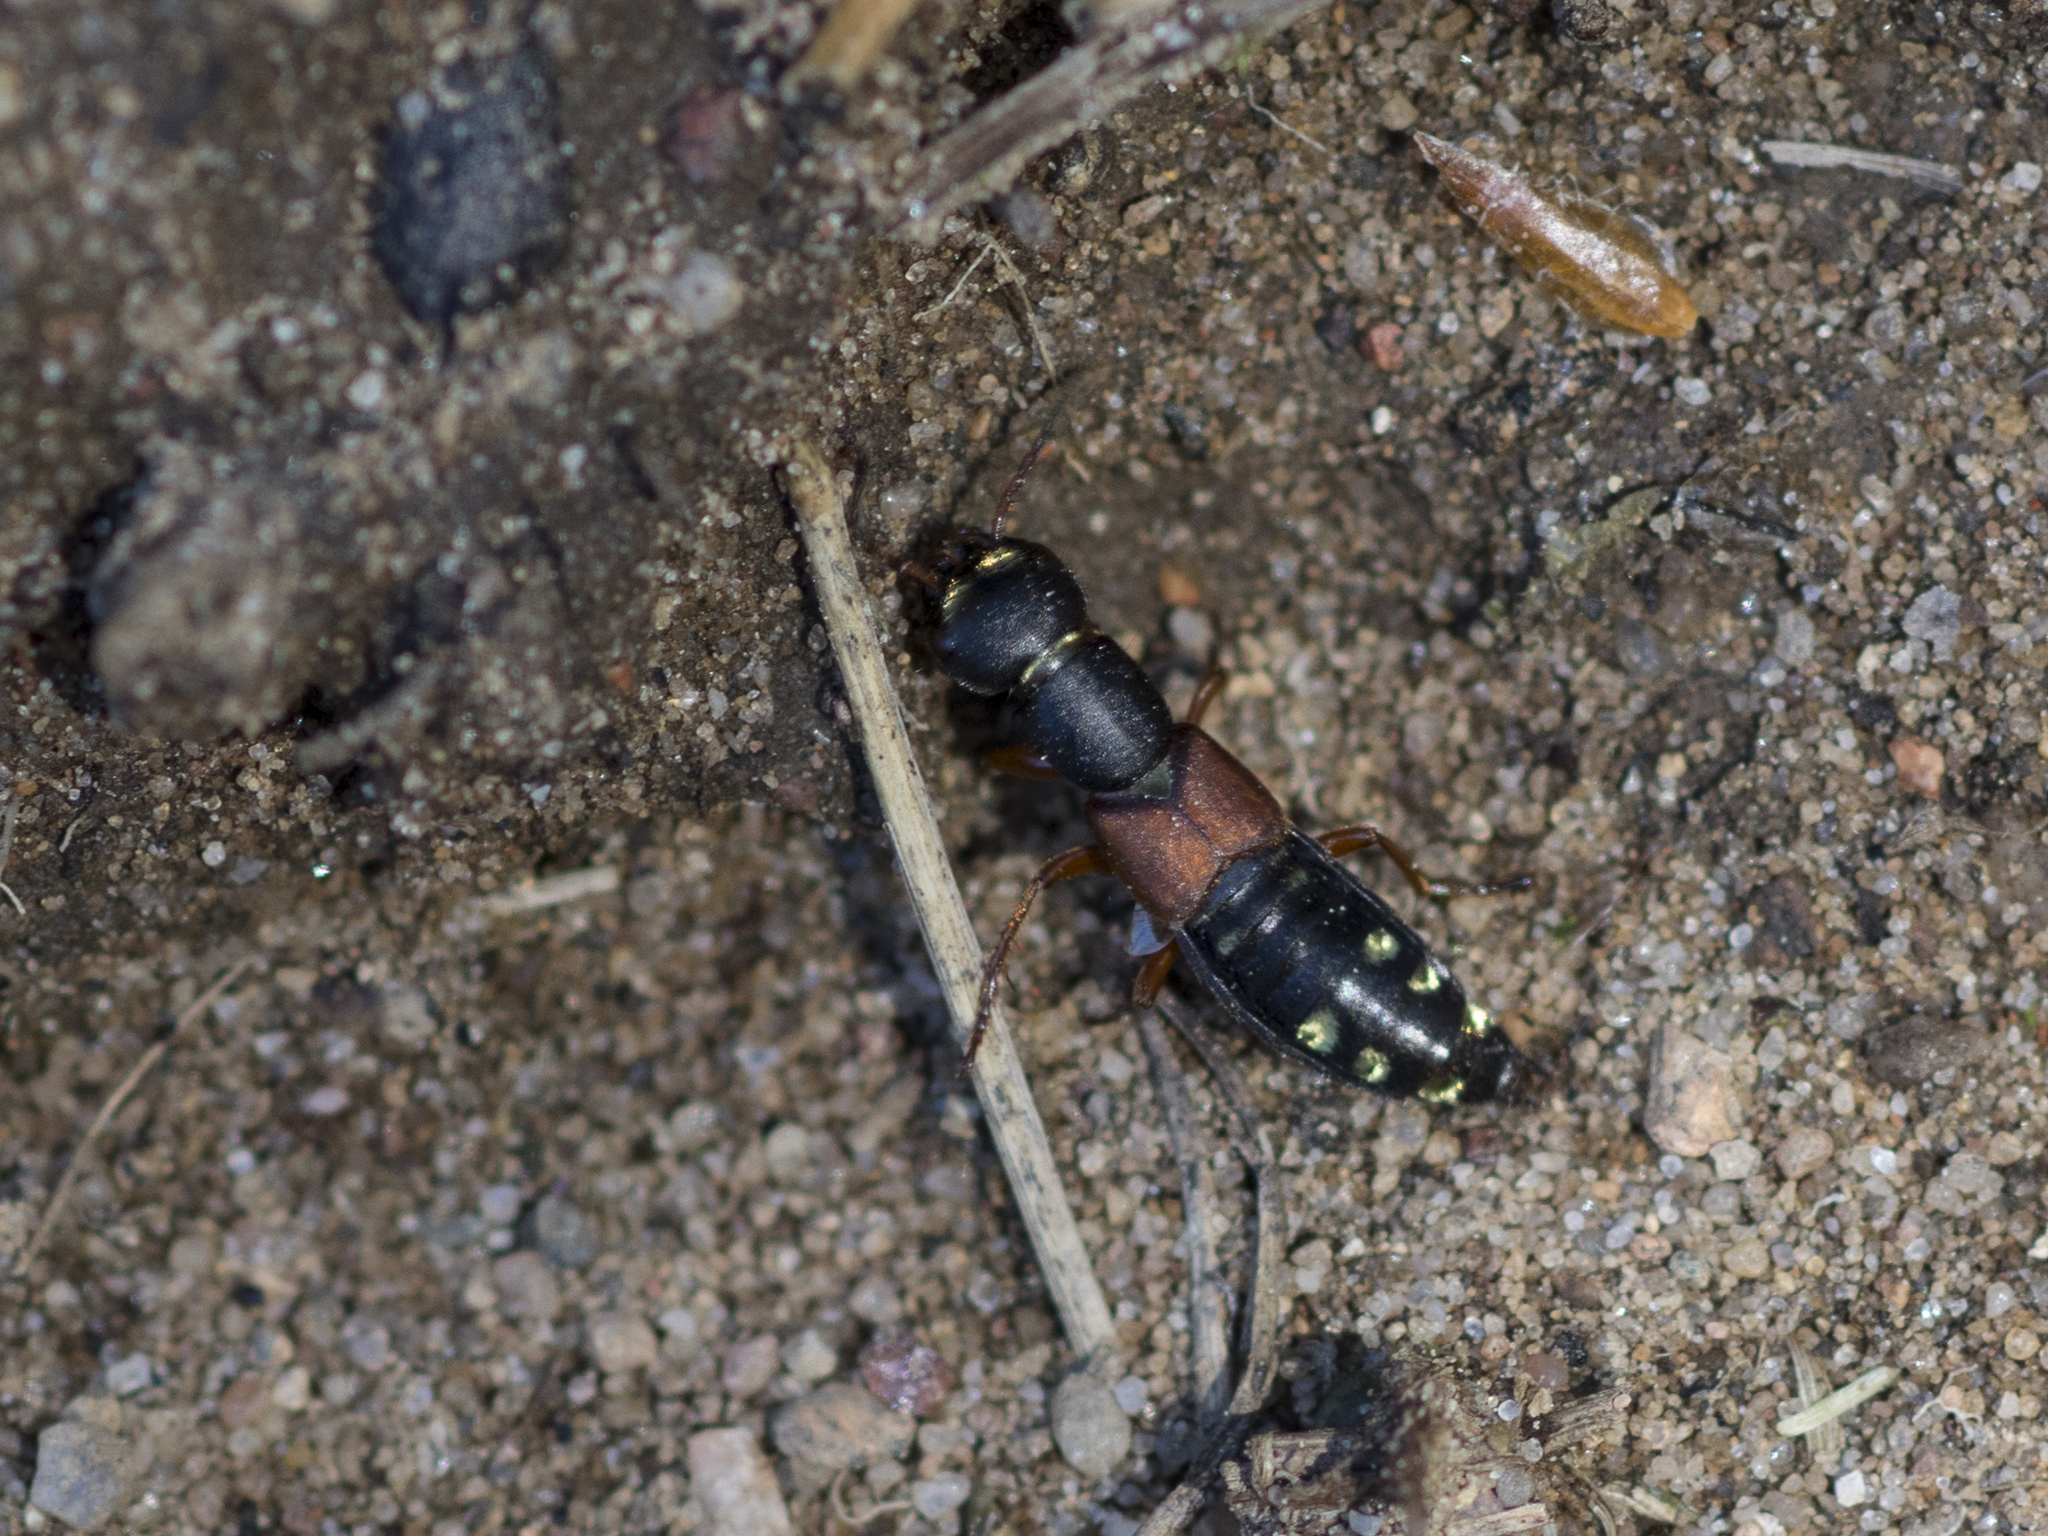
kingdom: Animalia
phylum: Arthropoda
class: Insecta
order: Coleoptera
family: Staphylinidae
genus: Staphylinus
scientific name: Staphylinus erythropterus
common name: Staph beetle
